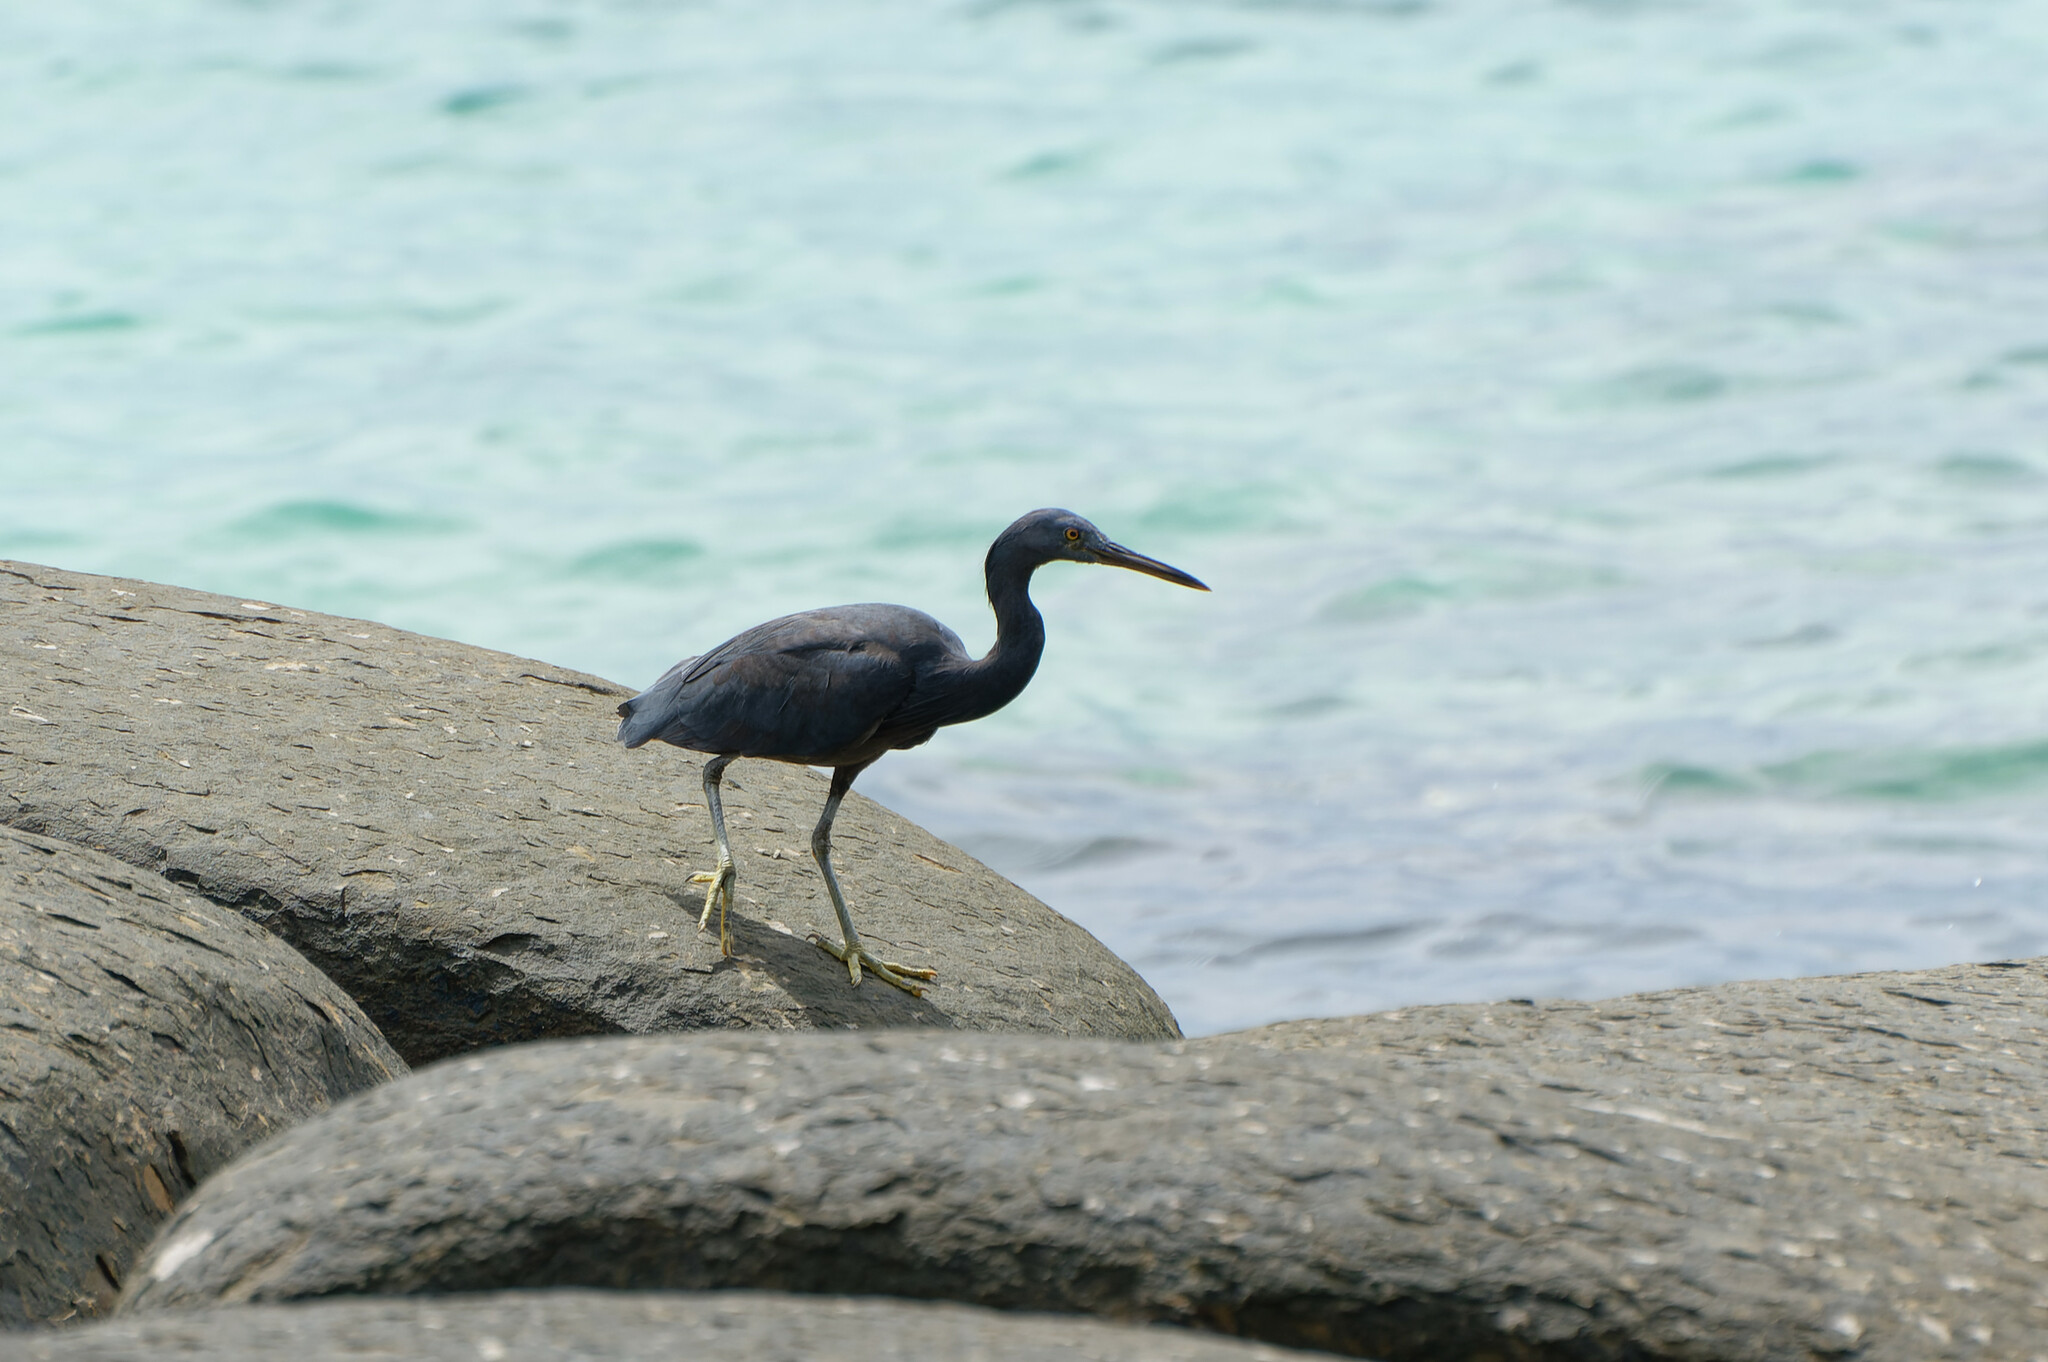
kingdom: Animalia
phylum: Chordata
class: Aves
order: Pelecaniformes
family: Ardeidae
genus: Egretta
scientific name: Egretta sacra
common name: Pacific reef heron
